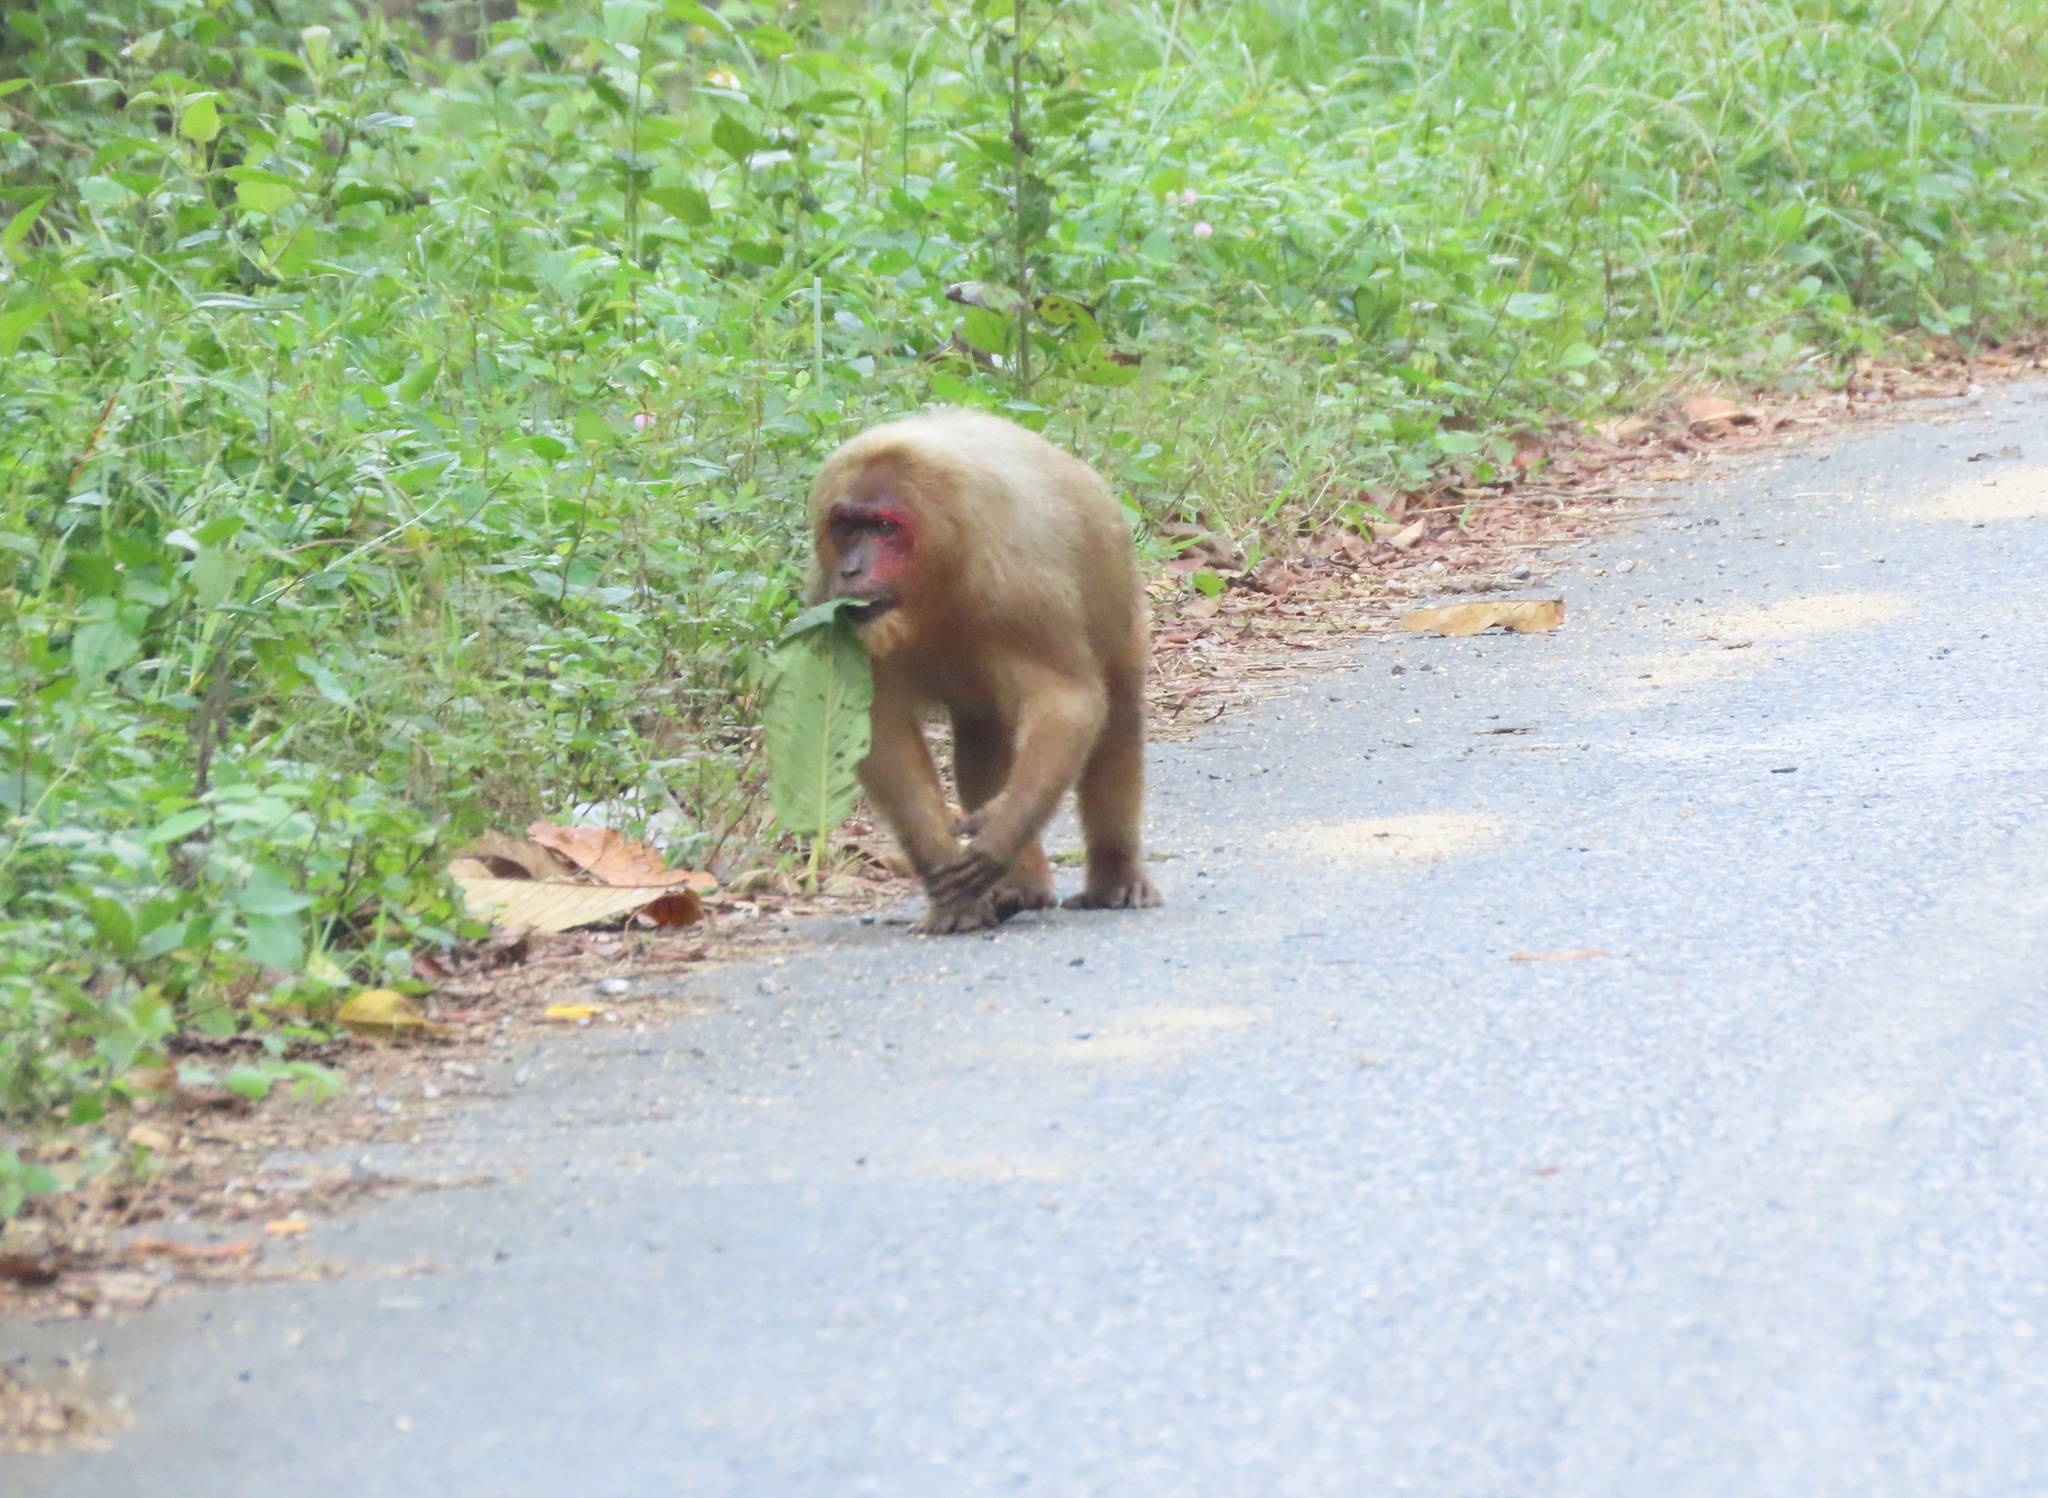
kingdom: Animalia
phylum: Chordata
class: Mammalia
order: Primates
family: Cercopithecidae
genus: Macaca
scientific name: Macaca arctoides
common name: Stump-tailed macaque
